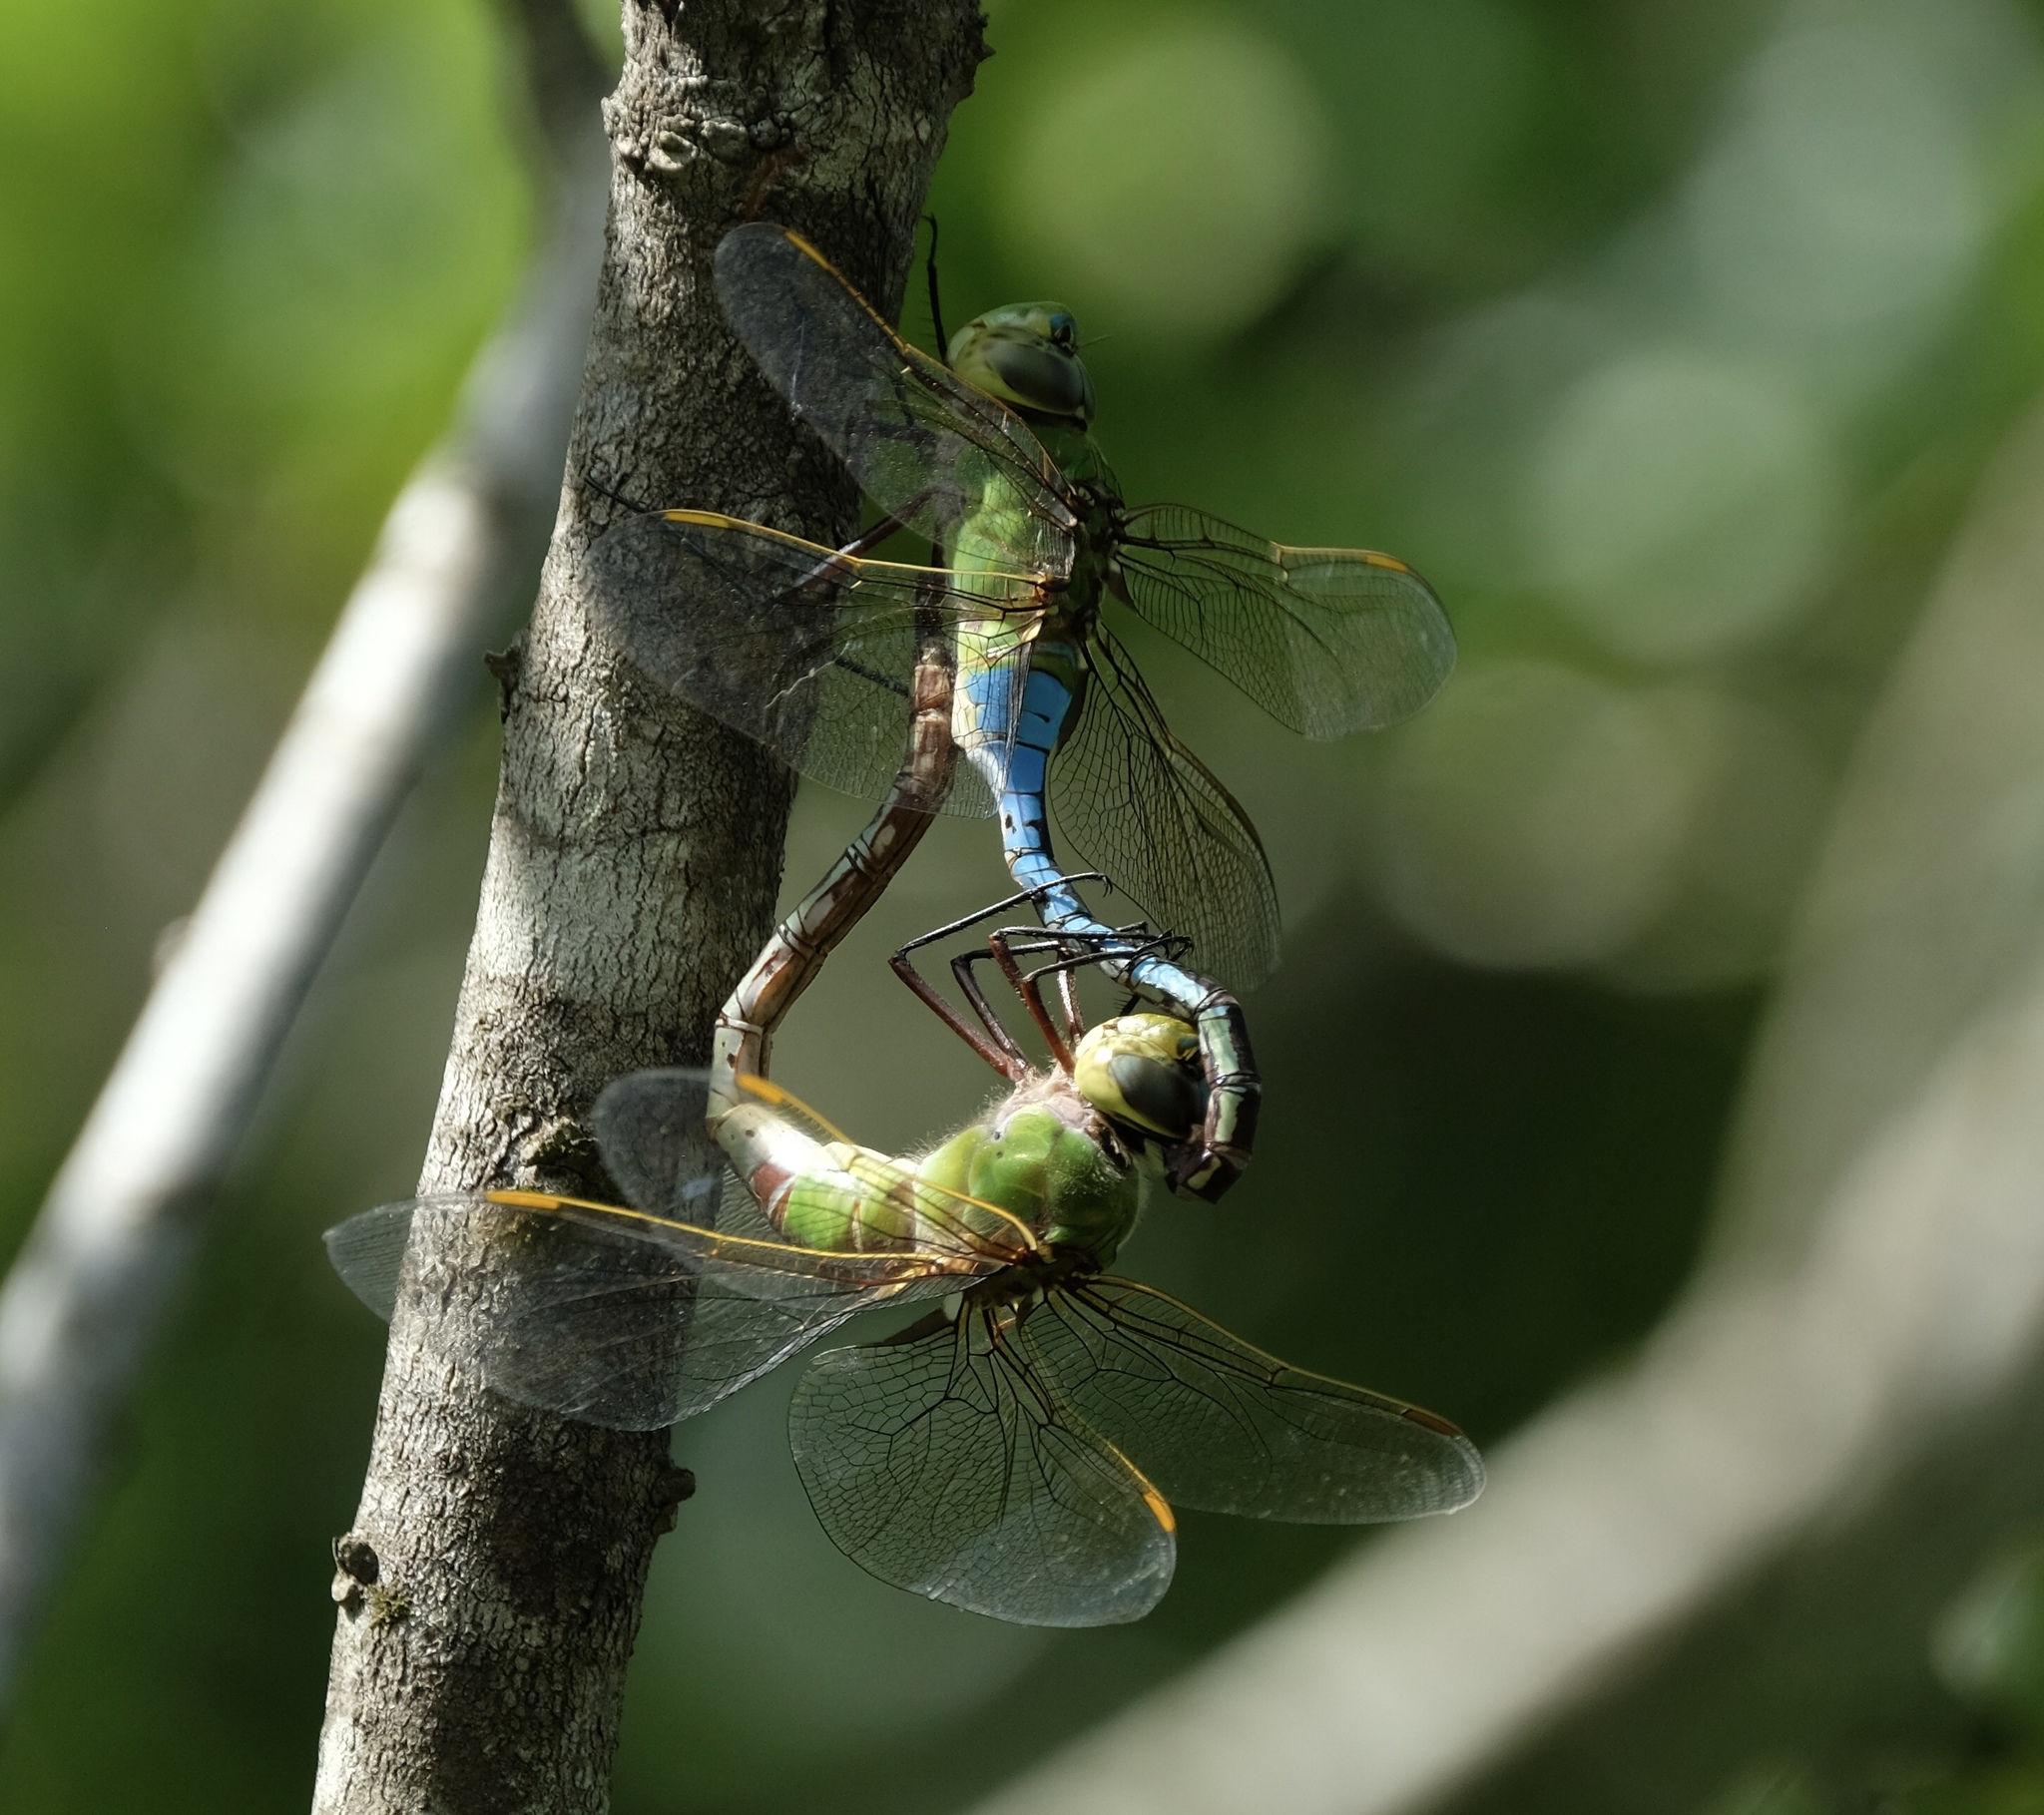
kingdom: Animalia
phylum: Arthropoda
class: Insecta
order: Odonata
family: Aeshnidae
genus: Anax
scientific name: Anax junius
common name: Common green darner
